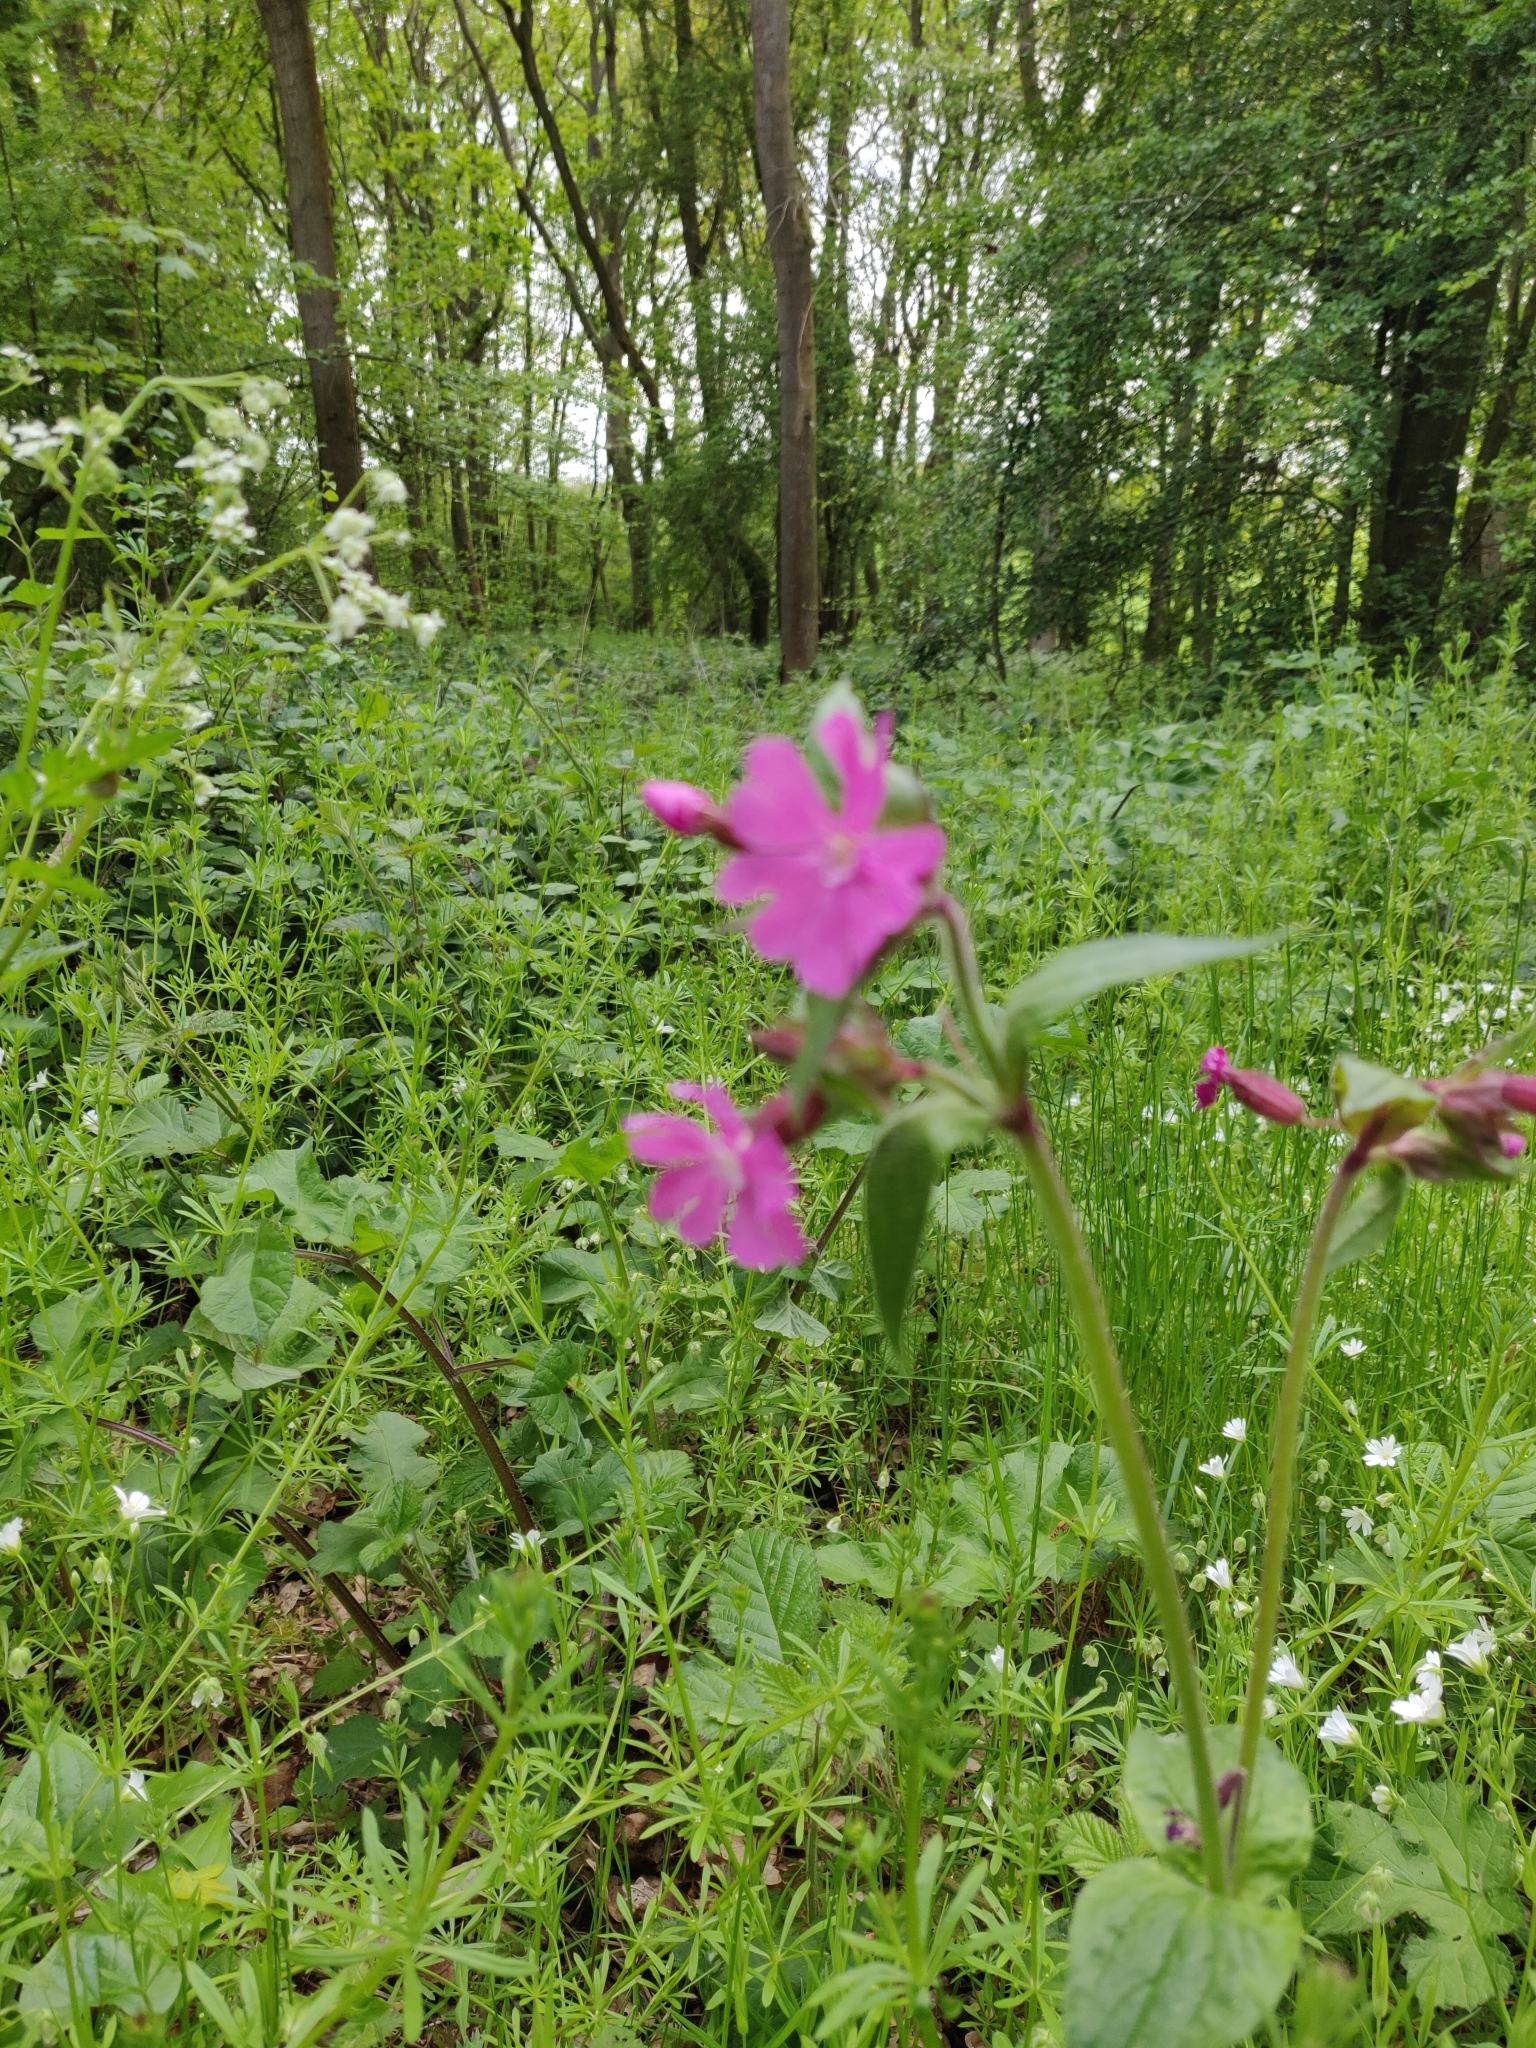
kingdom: Plantae
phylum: Tracheophyta
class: Magnoliopsida
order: Caryophyllales
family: Caryophyllaceae
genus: Silene
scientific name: Silene dioica
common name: Red campion
